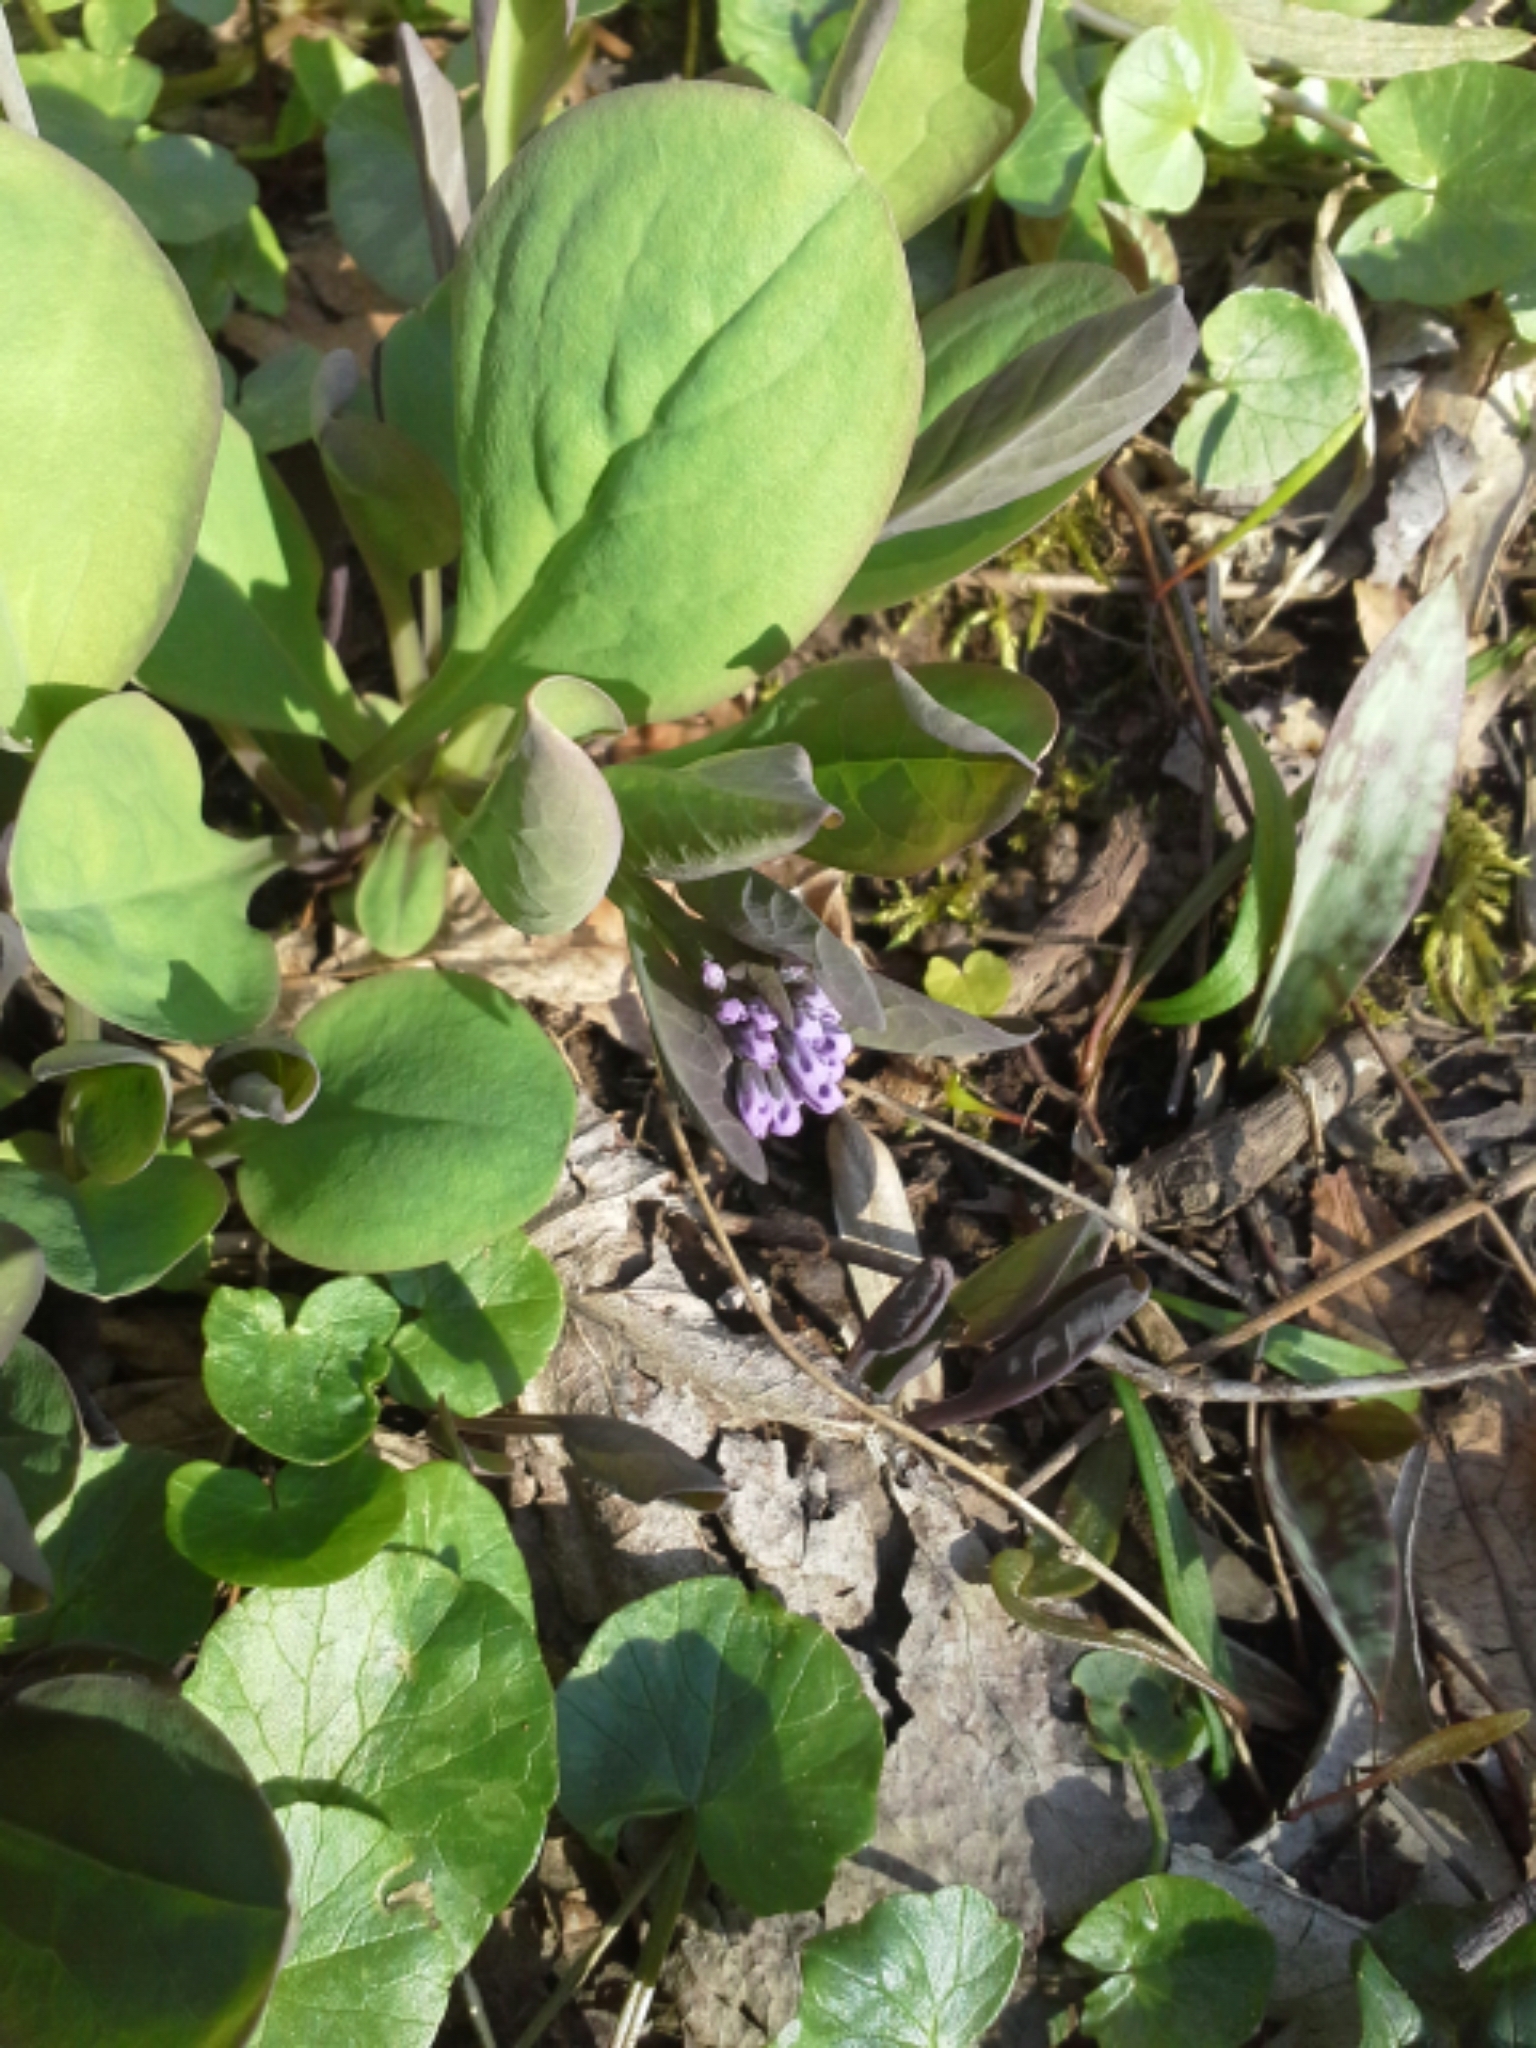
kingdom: Plantae
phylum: Tracheophyta
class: Magnoliopsida
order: Boraginales
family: Boraginaceae
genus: Mertensia
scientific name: Mertensia virginica
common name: Virginia bluebells
